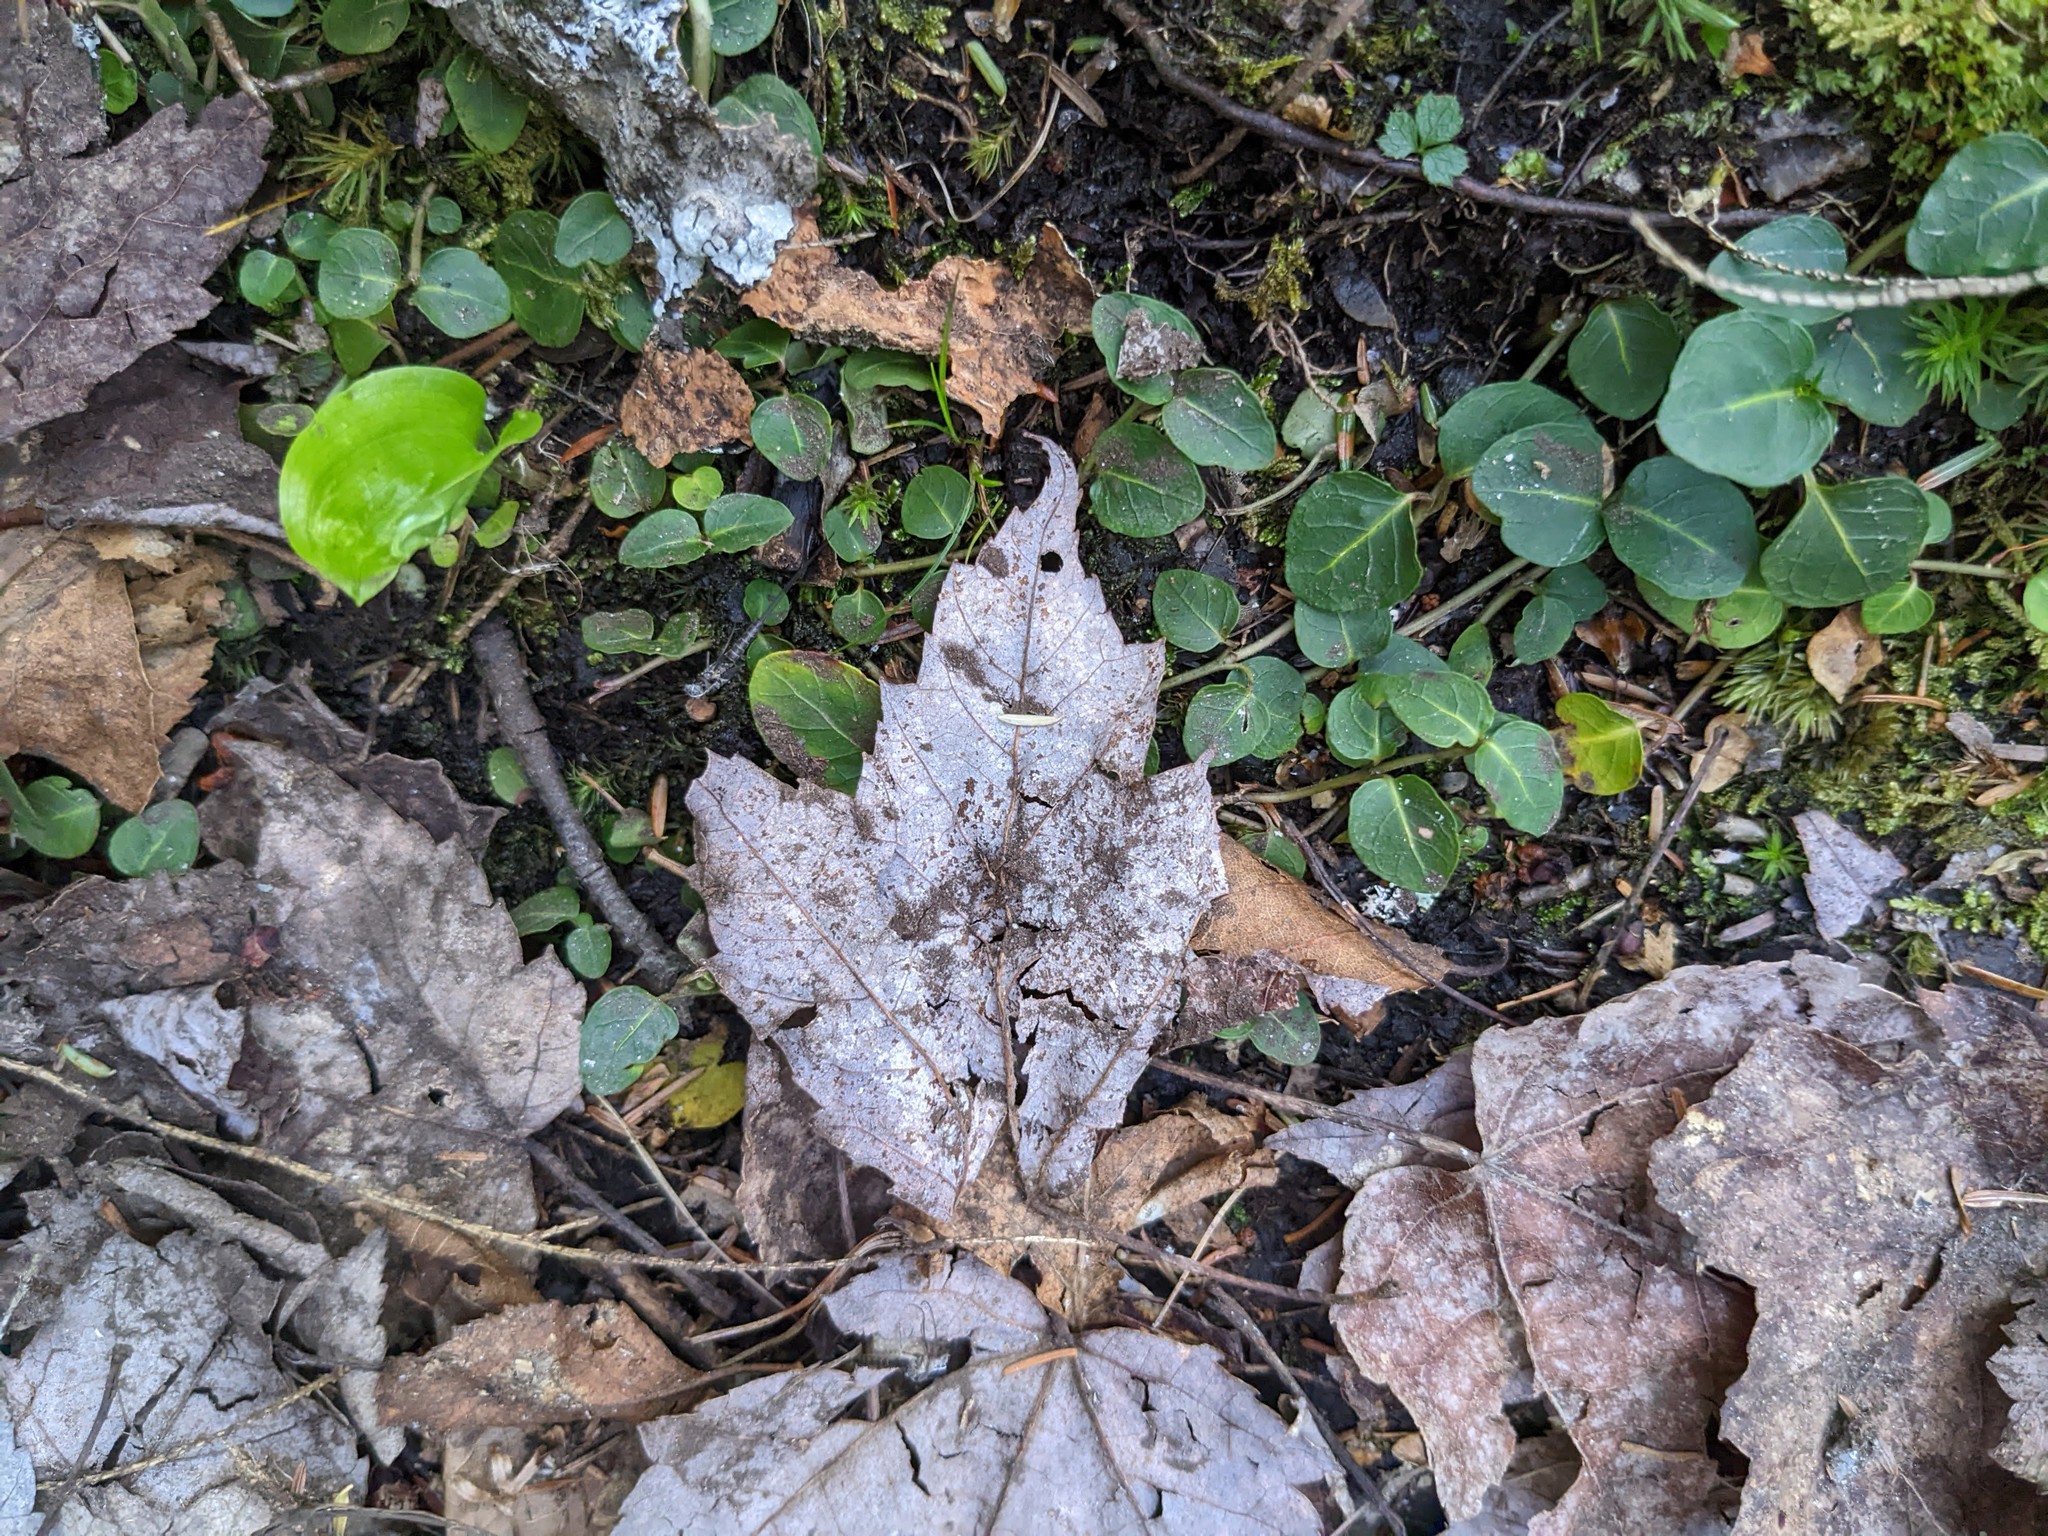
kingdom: Plantae
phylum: Tracheophyta
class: Magnoliopsida
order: Gentianales
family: Rubiaceae
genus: Mitchella
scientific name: Mitchella repens
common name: Partridge-berry
